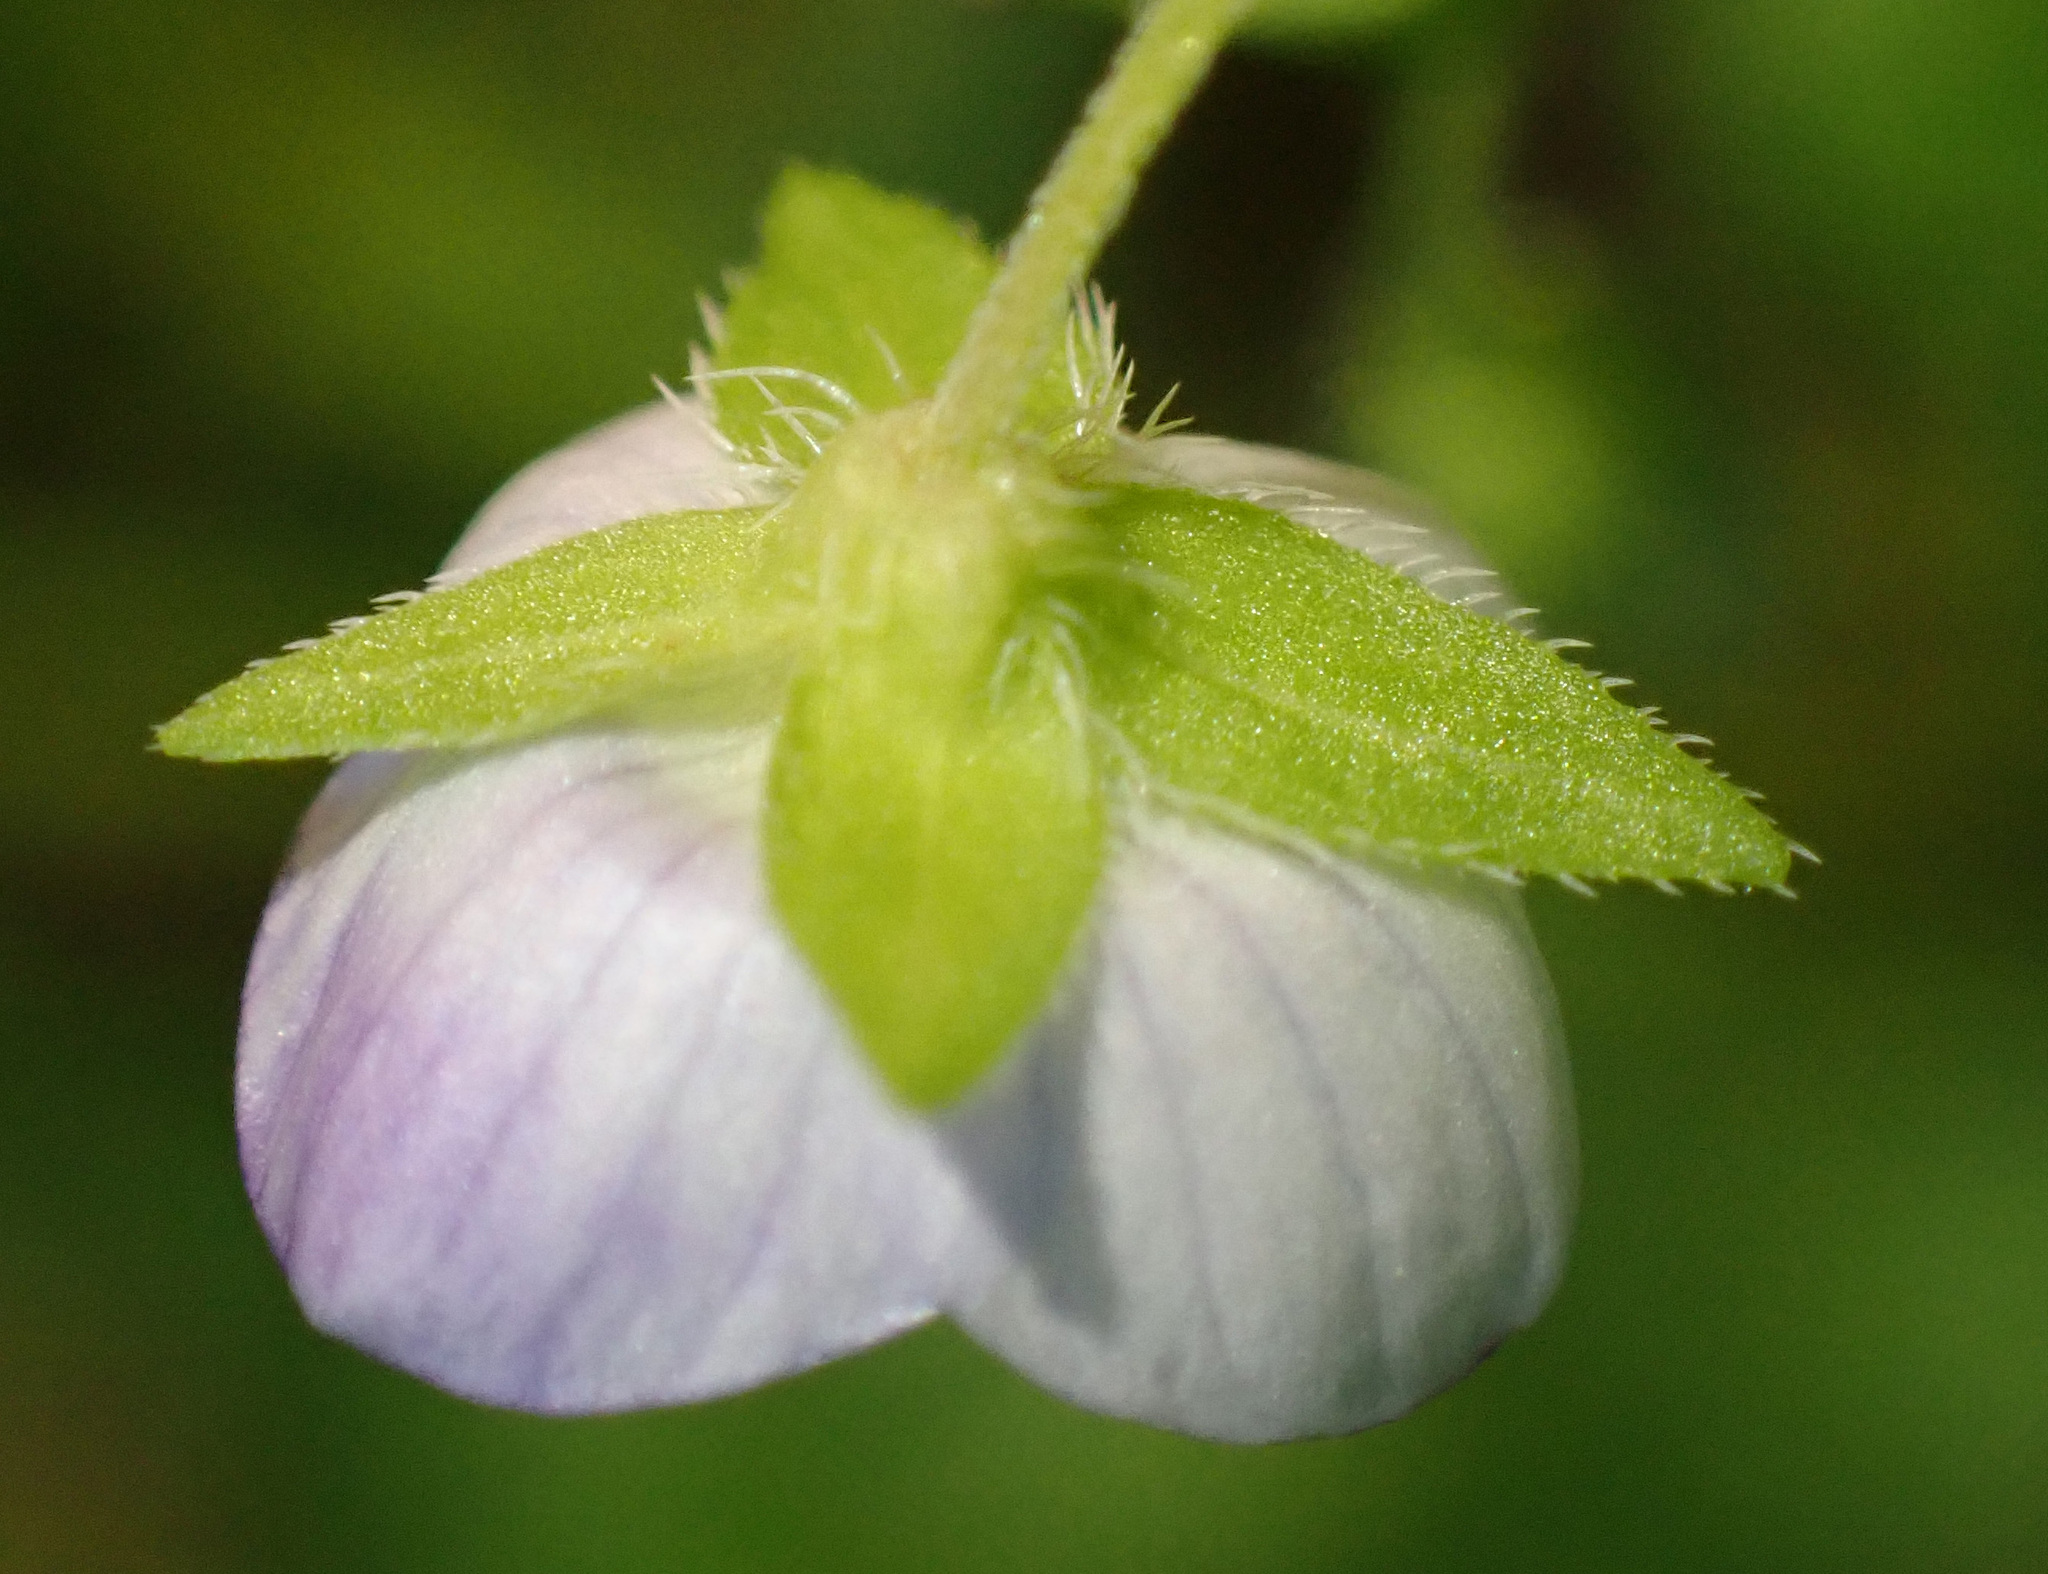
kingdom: Plantae
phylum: Tracheophyta
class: Magnoliopsida
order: Lamiales
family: Plantaginaceae
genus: Veronica
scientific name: Veronica persica
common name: Common field-speedwell
